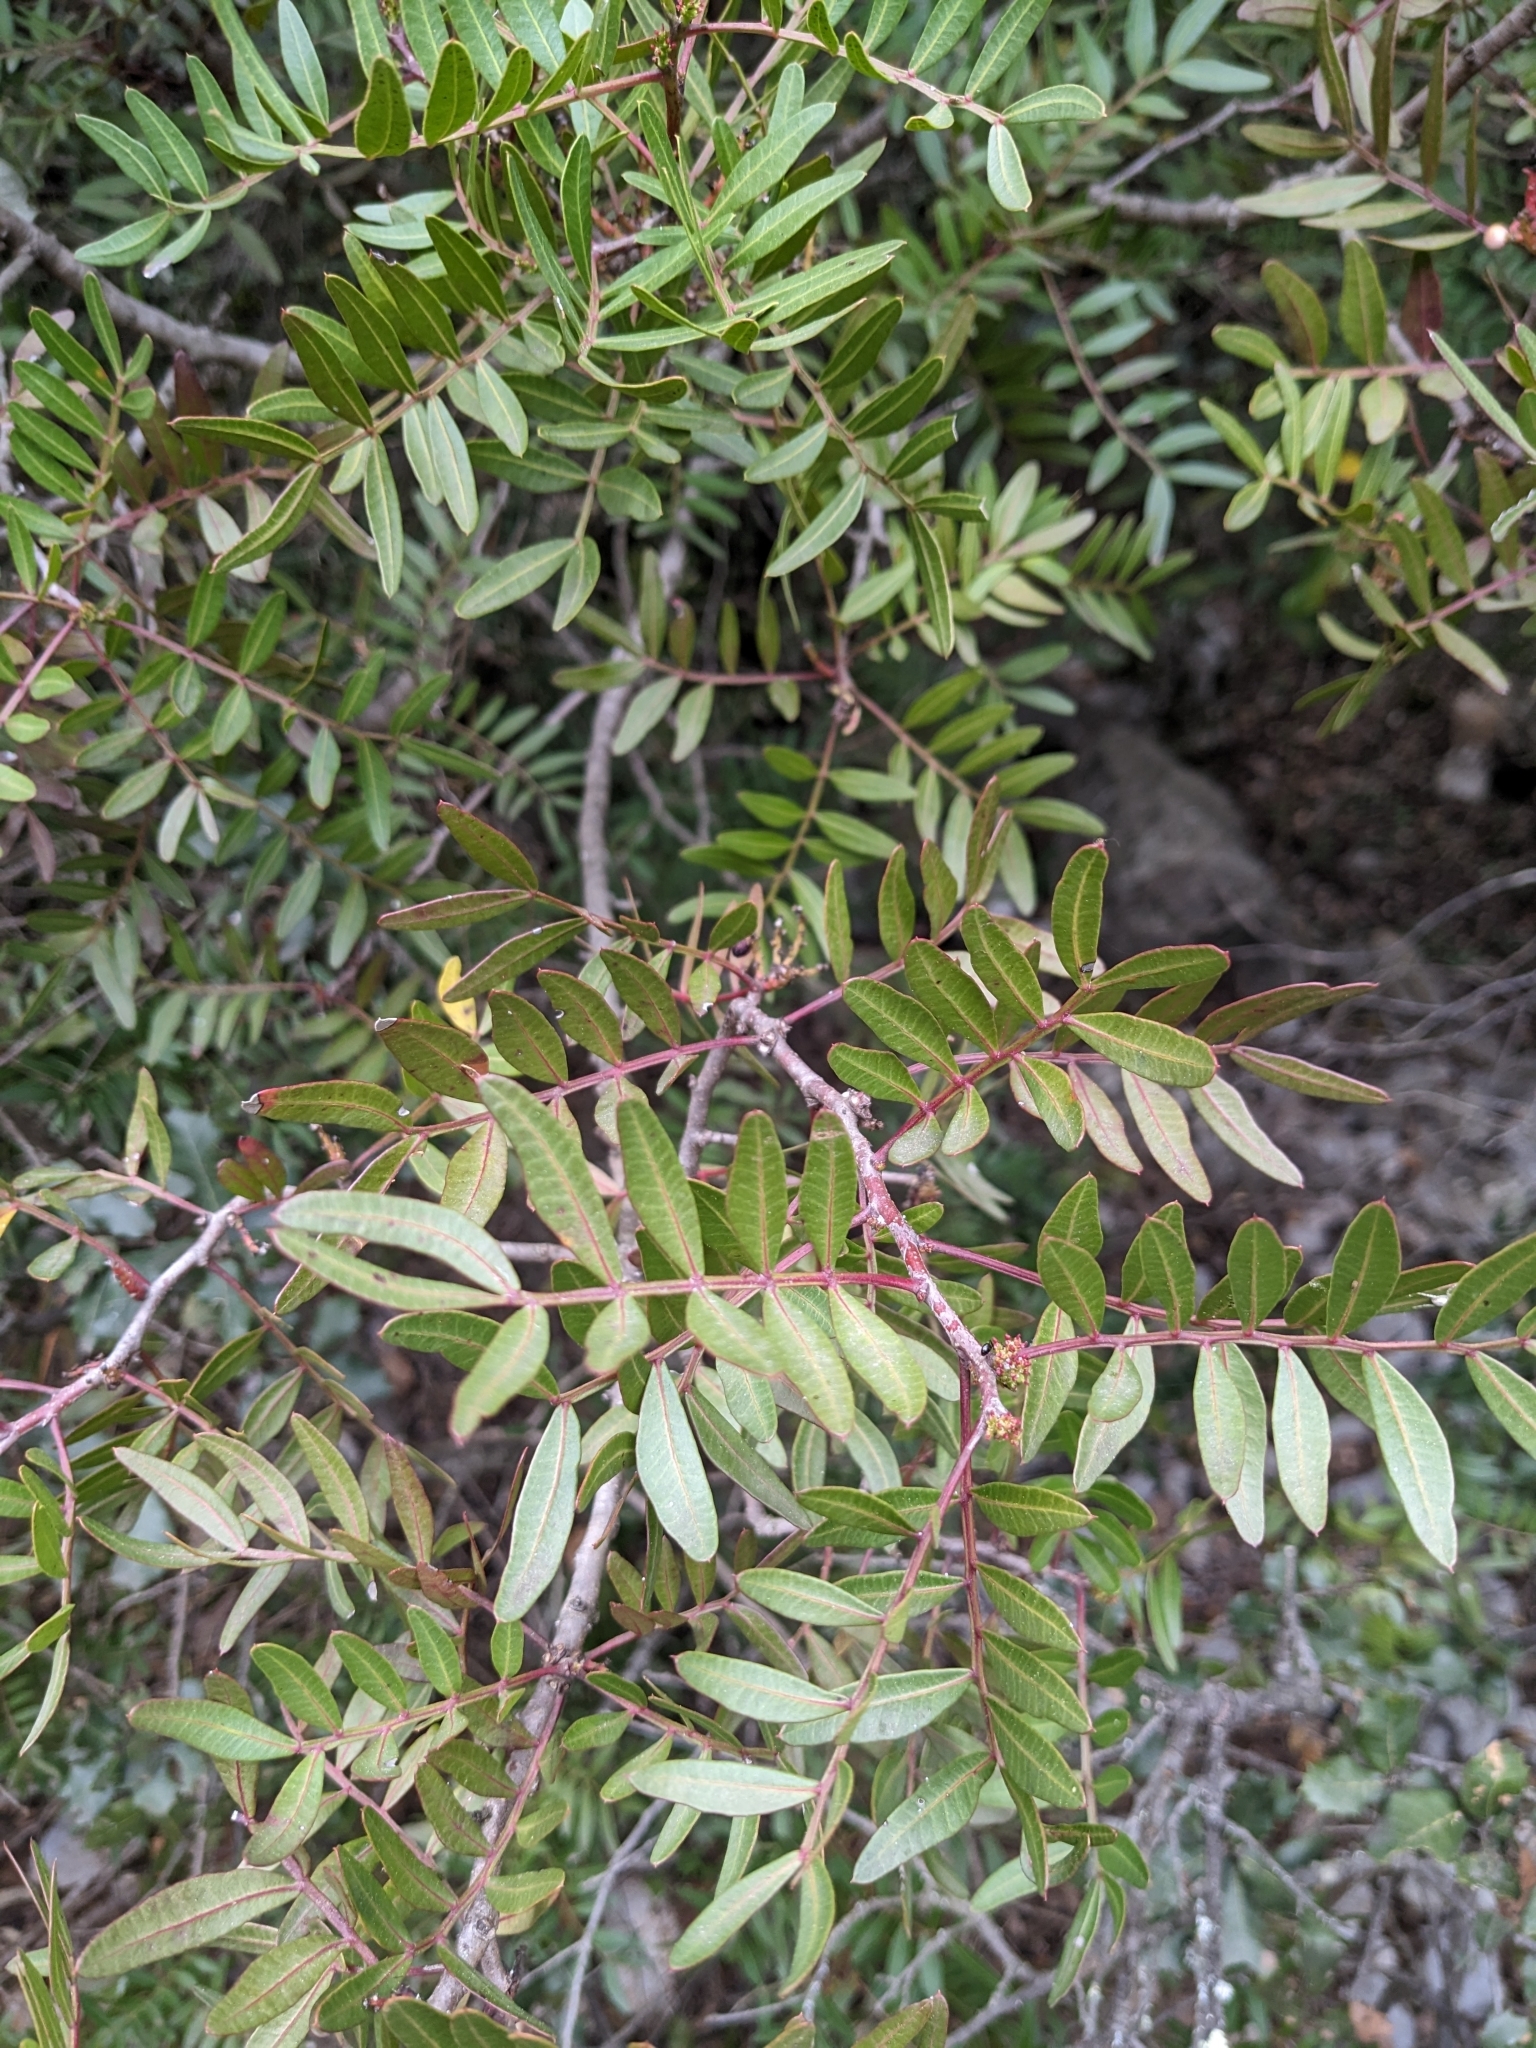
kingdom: Plantae
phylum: Tracheophyta
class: Magnoliopsida
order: Sapindales
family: Anacardiaceae
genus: Pistacia
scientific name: Pistacia lentiscus
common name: Lentisk
